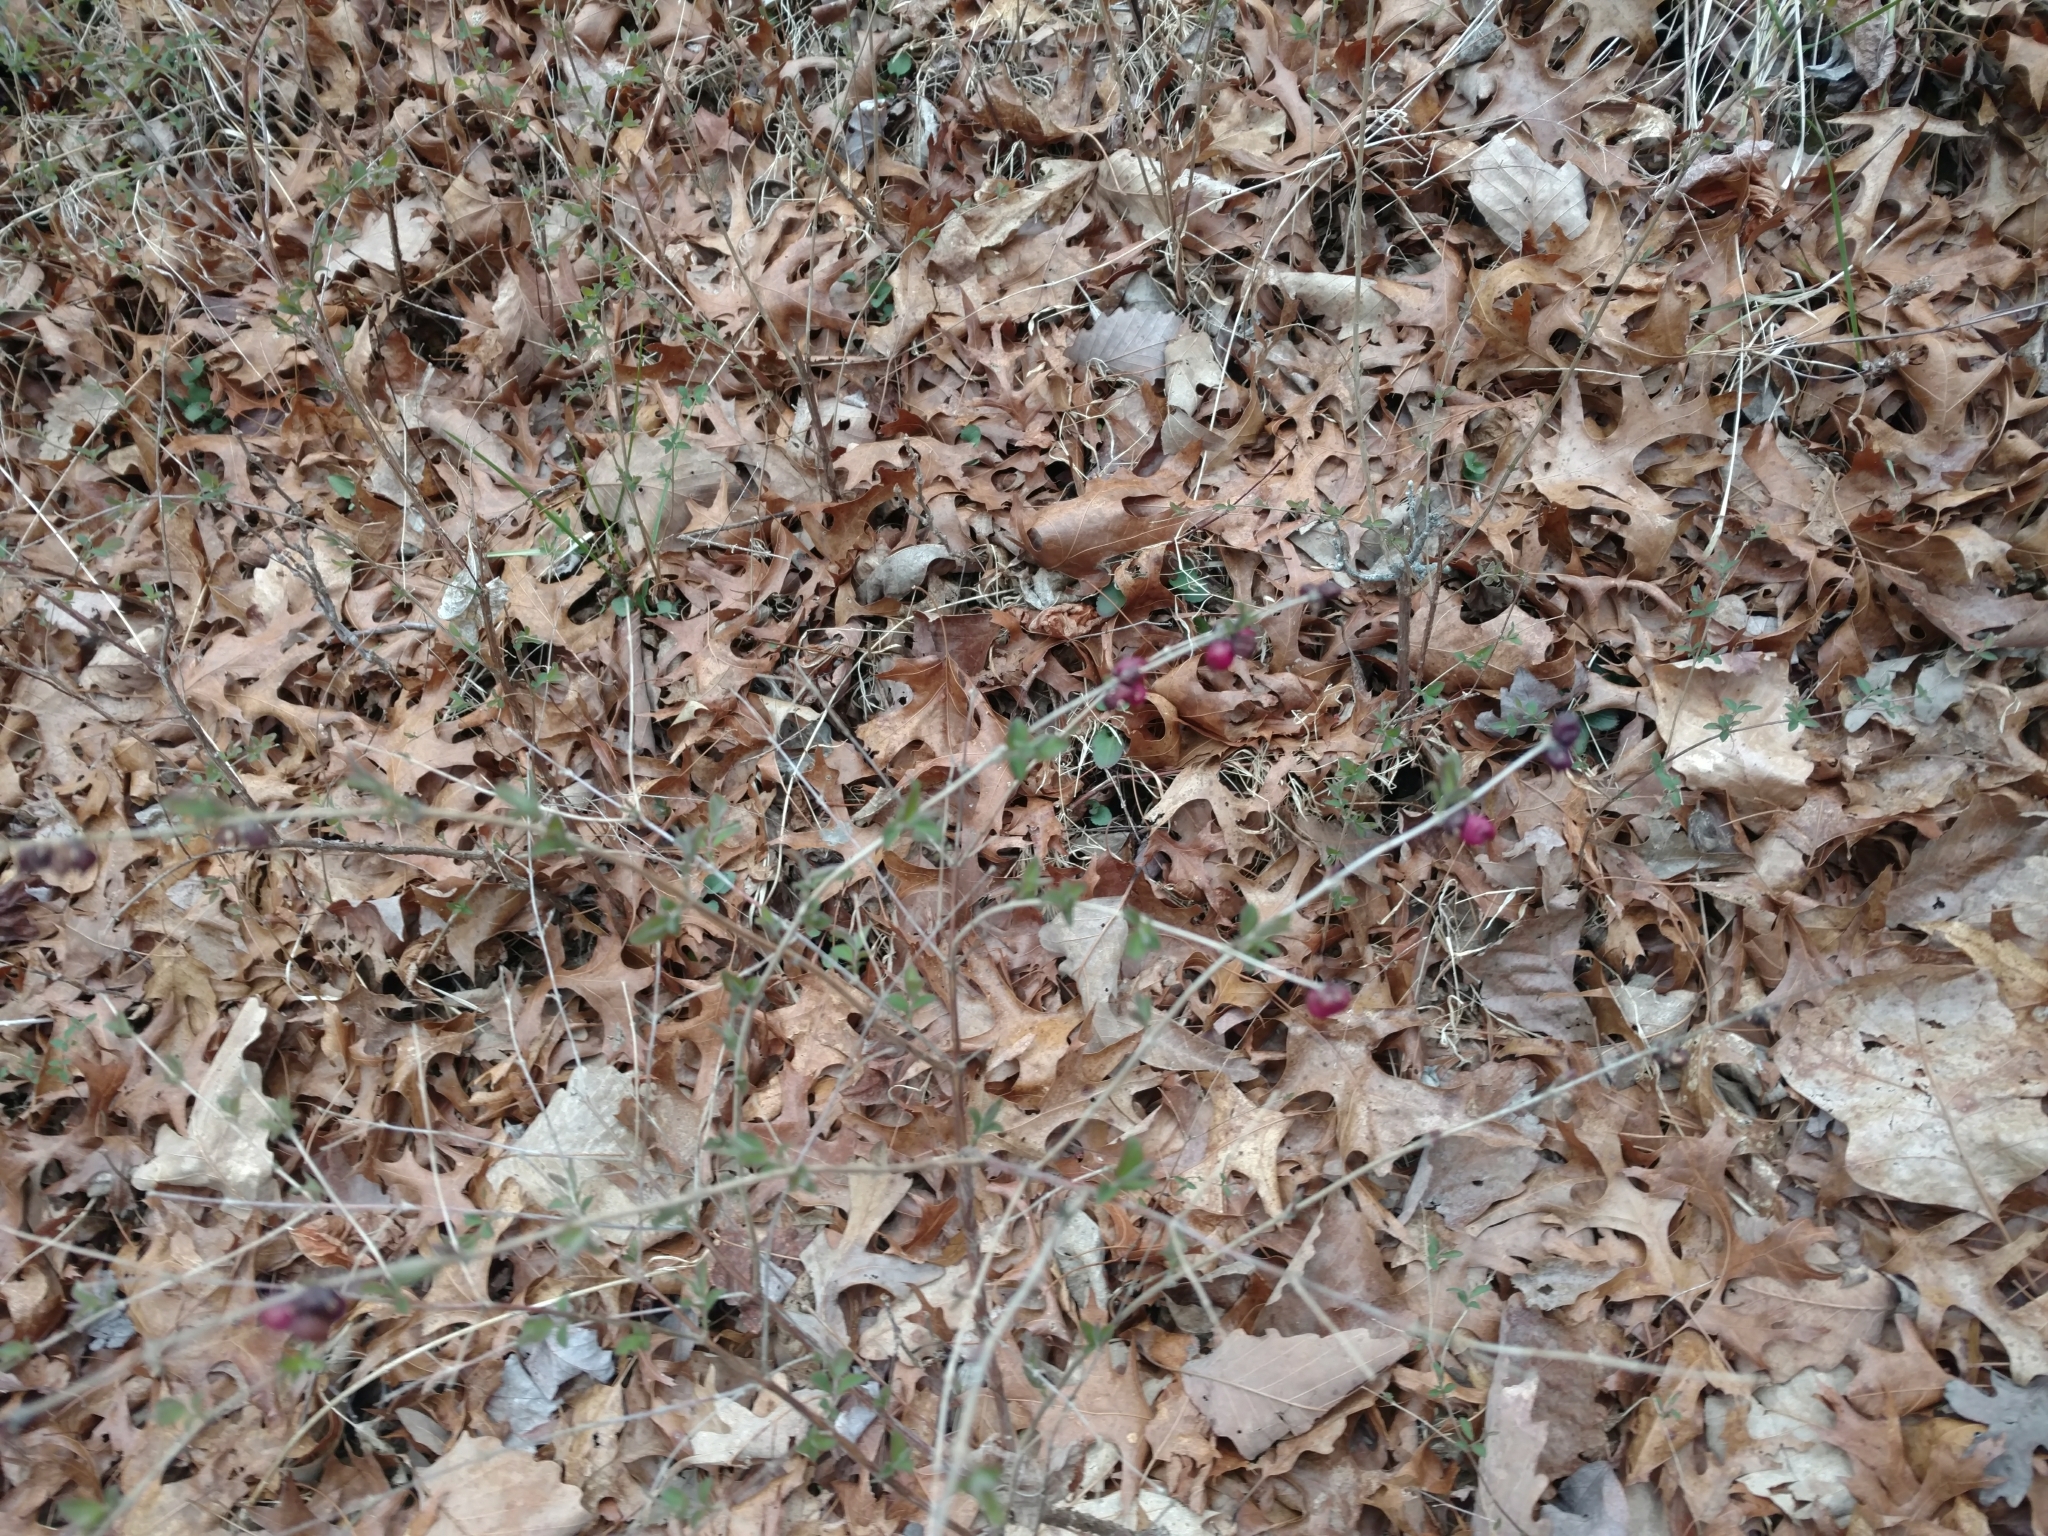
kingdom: Plantae
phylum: Tracheophyta
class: Magnoliopsida
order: Dipsacales
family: Caprifoliaceae
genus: Symphoricarpos
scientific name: Symphoricarpos orbiculatus
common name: Coralberry
